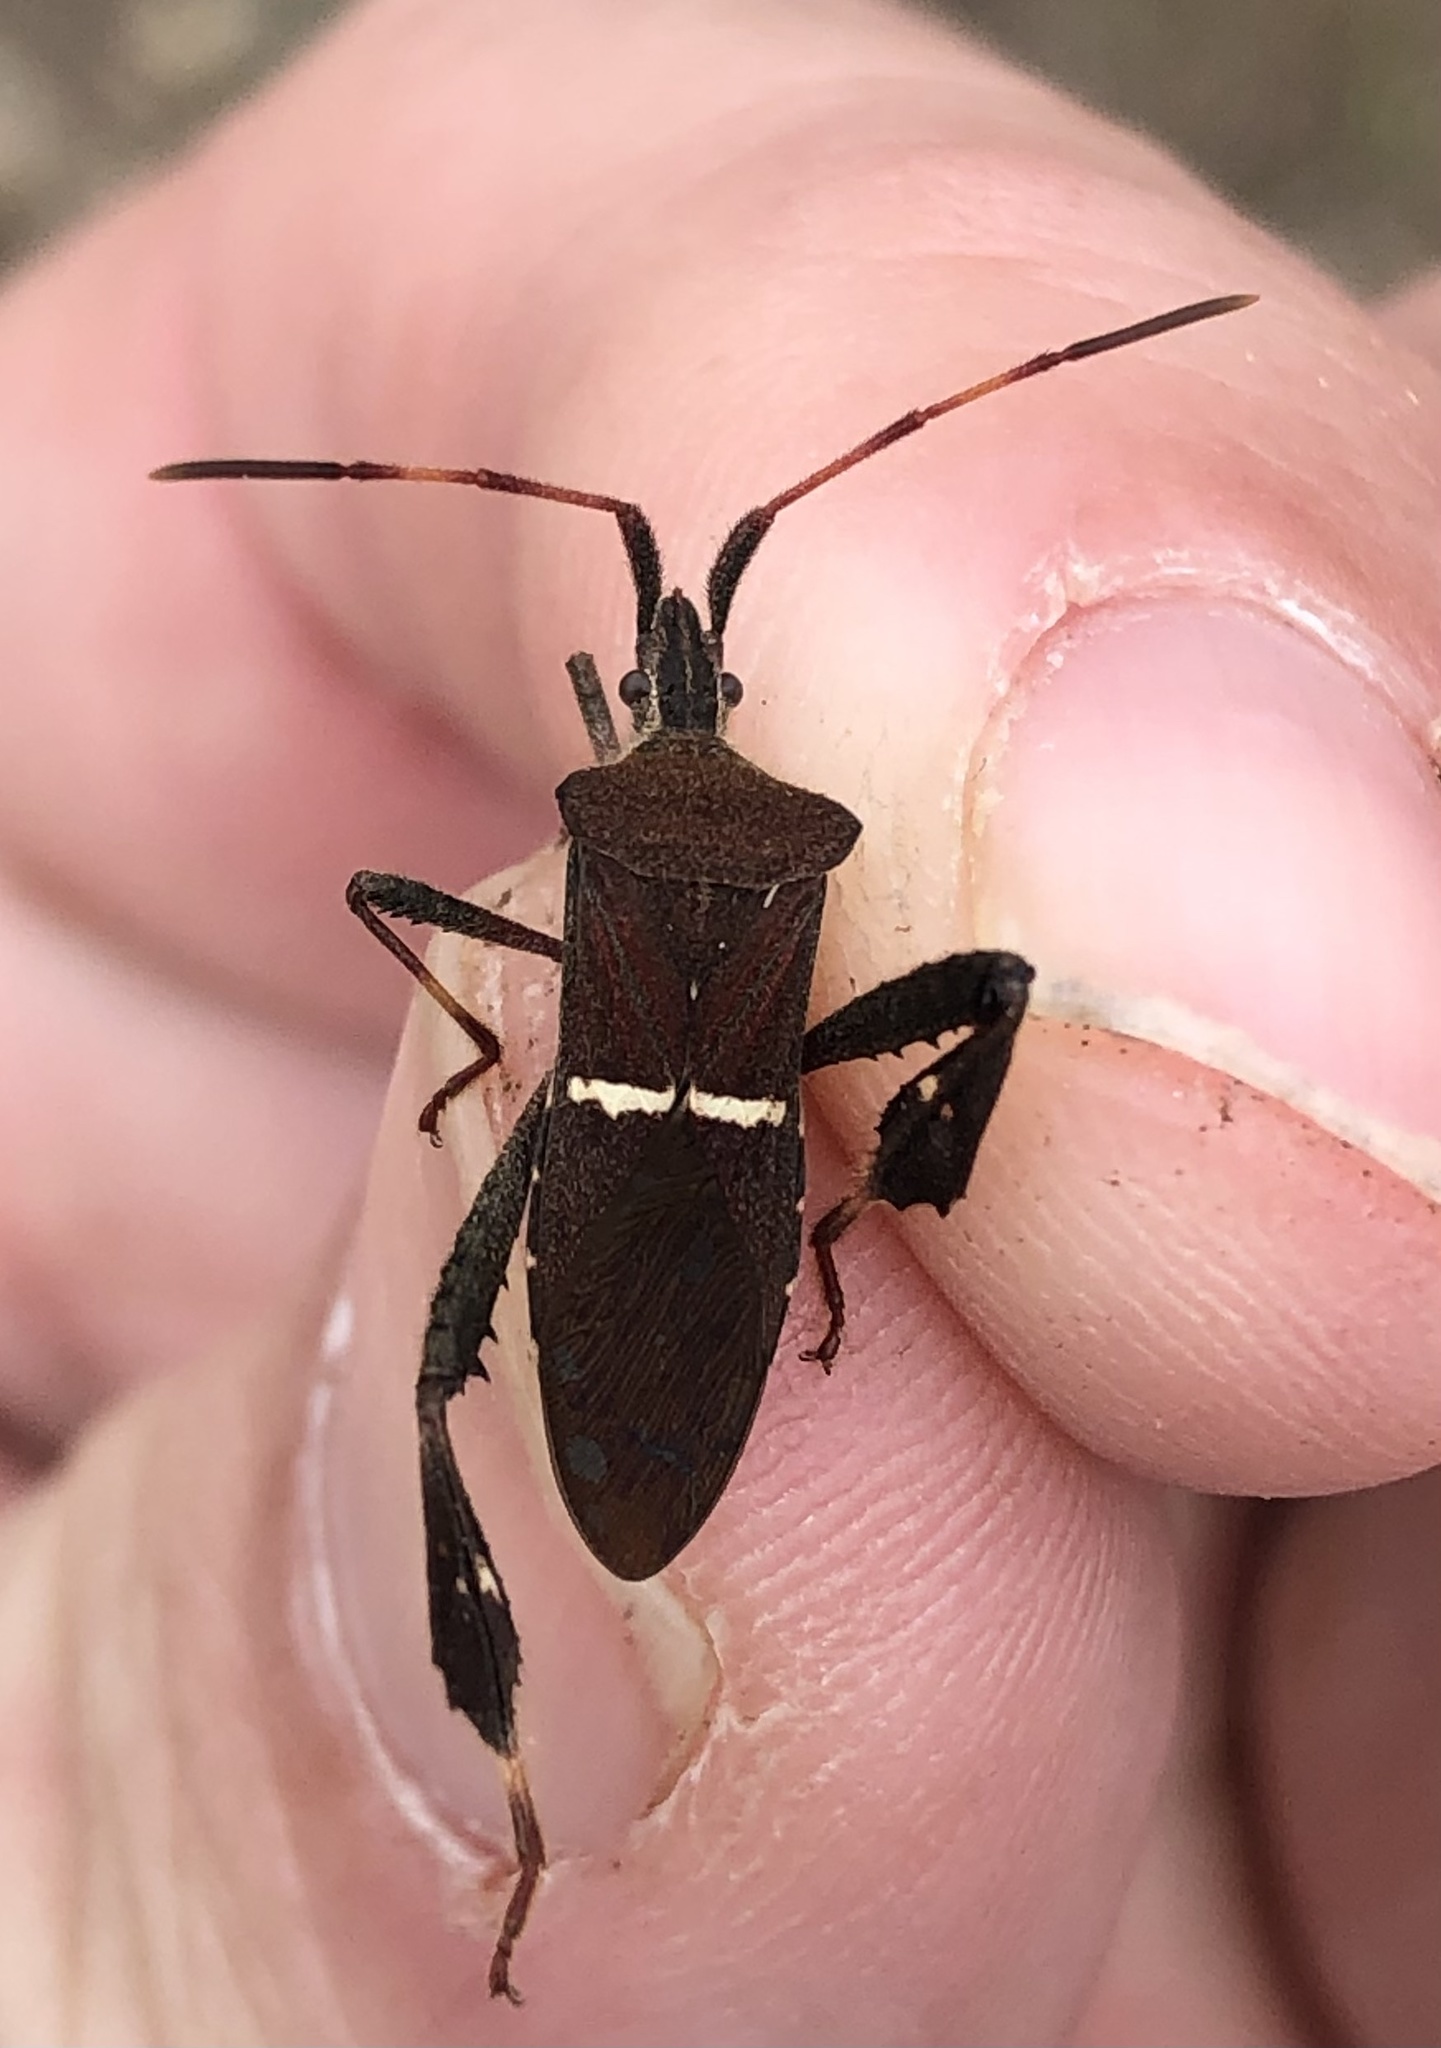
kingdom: Animalia
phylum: Arthropoda
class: Insecta
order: Hemiptera
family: Coreidae
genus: Leptoglossus
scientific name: Leptoglossus phyllopus
